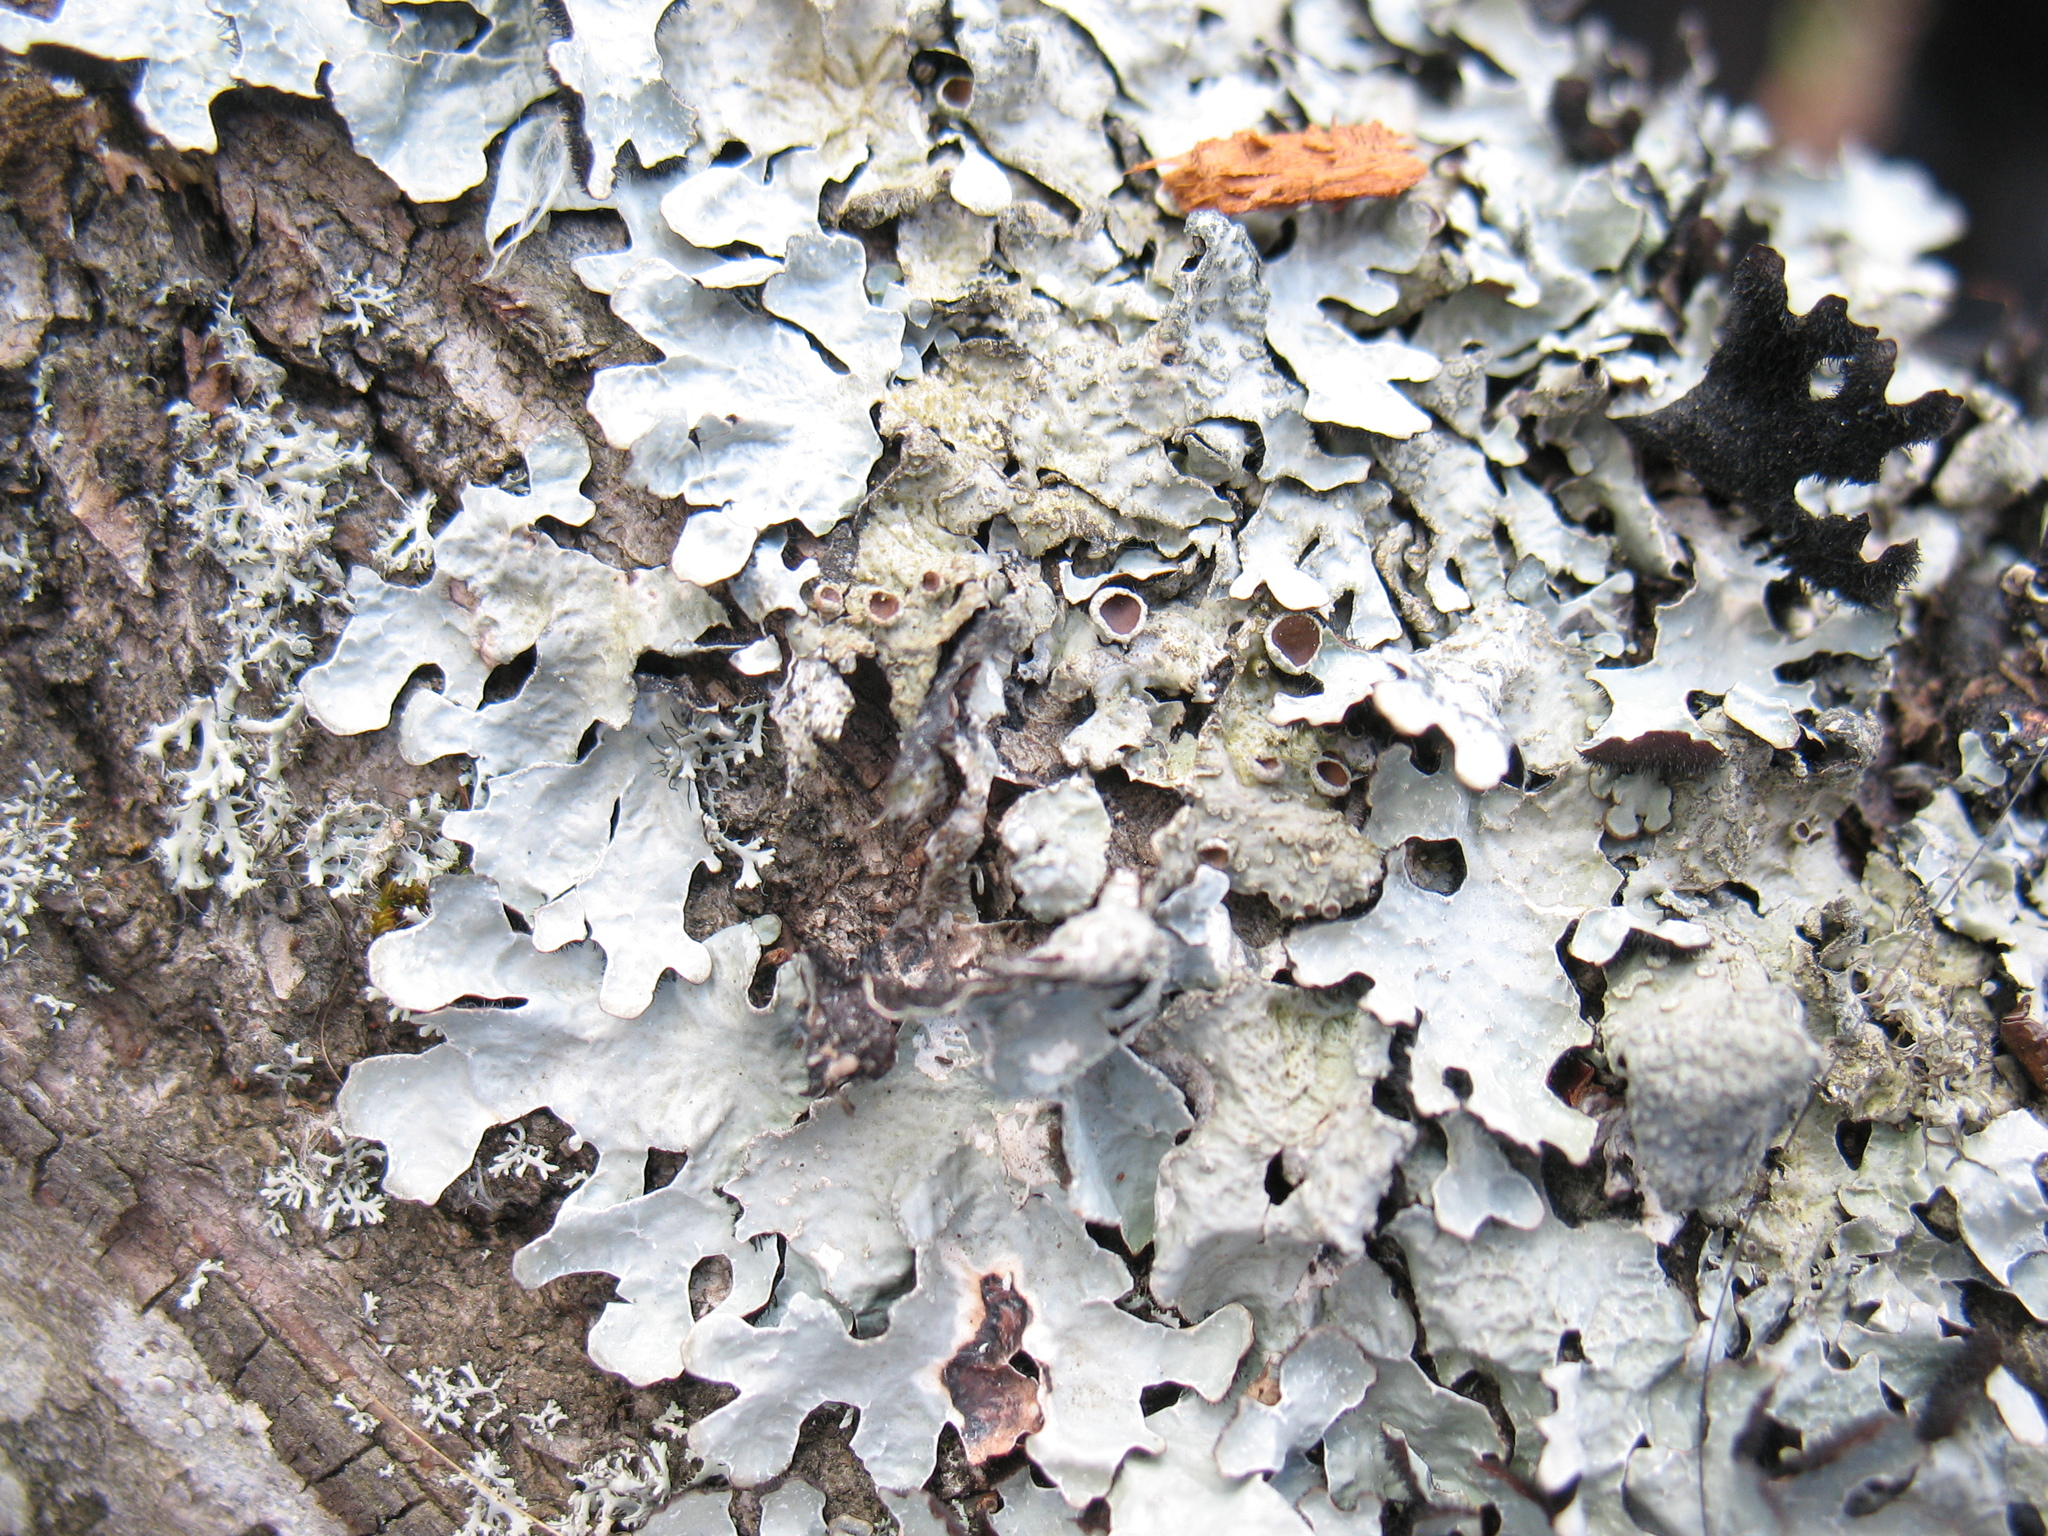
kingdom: Fungi
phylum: Ascomycota
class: Lecanoromycetes
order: Lecanorales
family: Parmeliaceae
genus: Parmelia
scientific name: Parmelia sulcata
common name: Netted shield lichen
